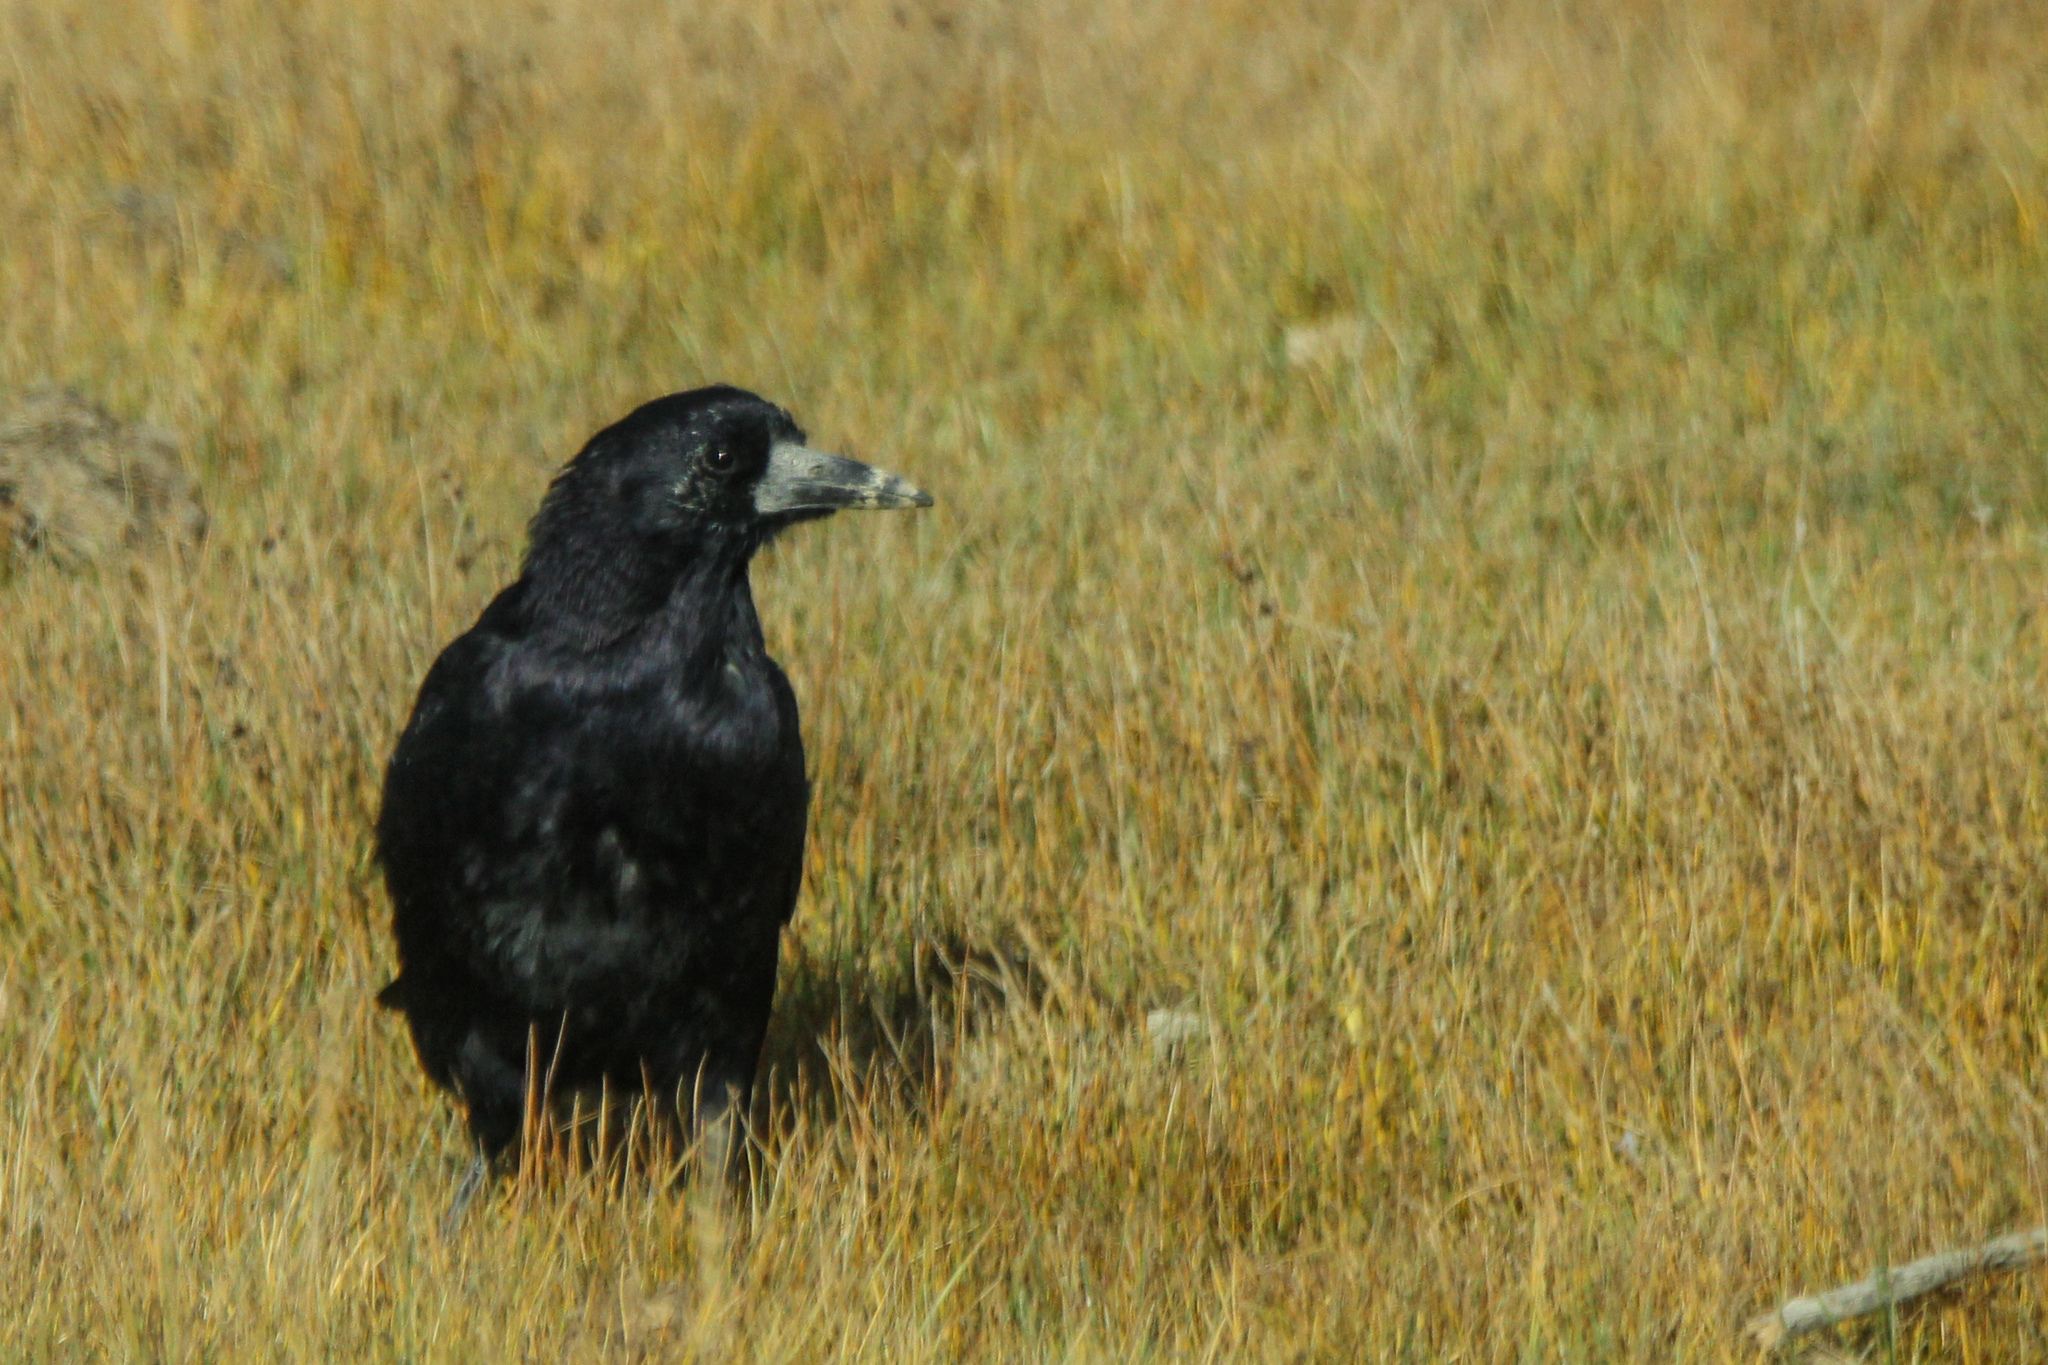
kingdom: Animalia
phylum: Chordata
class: Aves
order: Passeriformes
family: Corvidae
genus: Corvus
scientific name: Corvus frugilegus
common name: Rook
